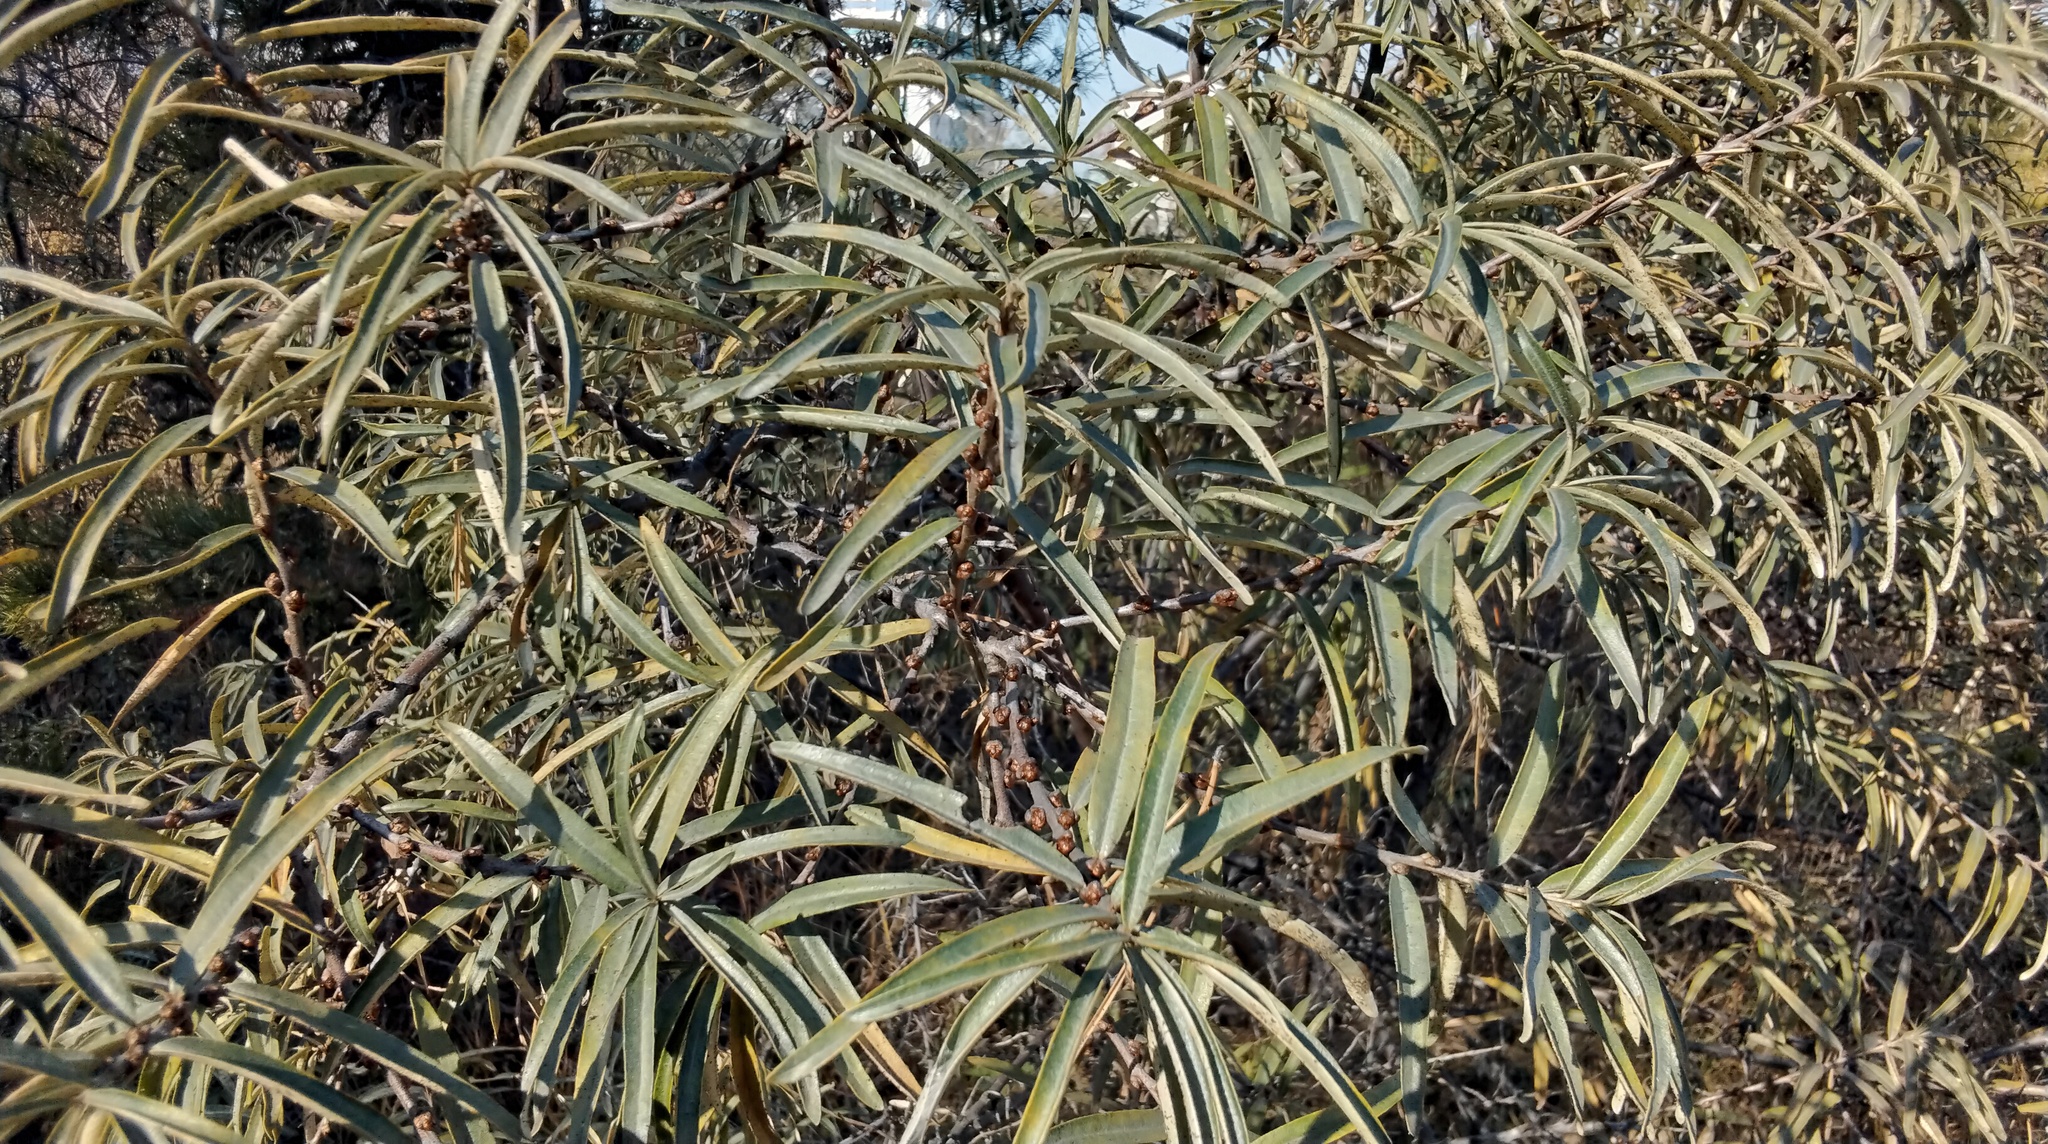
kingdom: Plantae
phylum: Tracheophyta
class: Magnoliopsida
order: Rosales
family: Elaeagnaceae
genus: Hippophae
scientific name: Hippophae rhamnoides
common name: Sea-buckthorn
